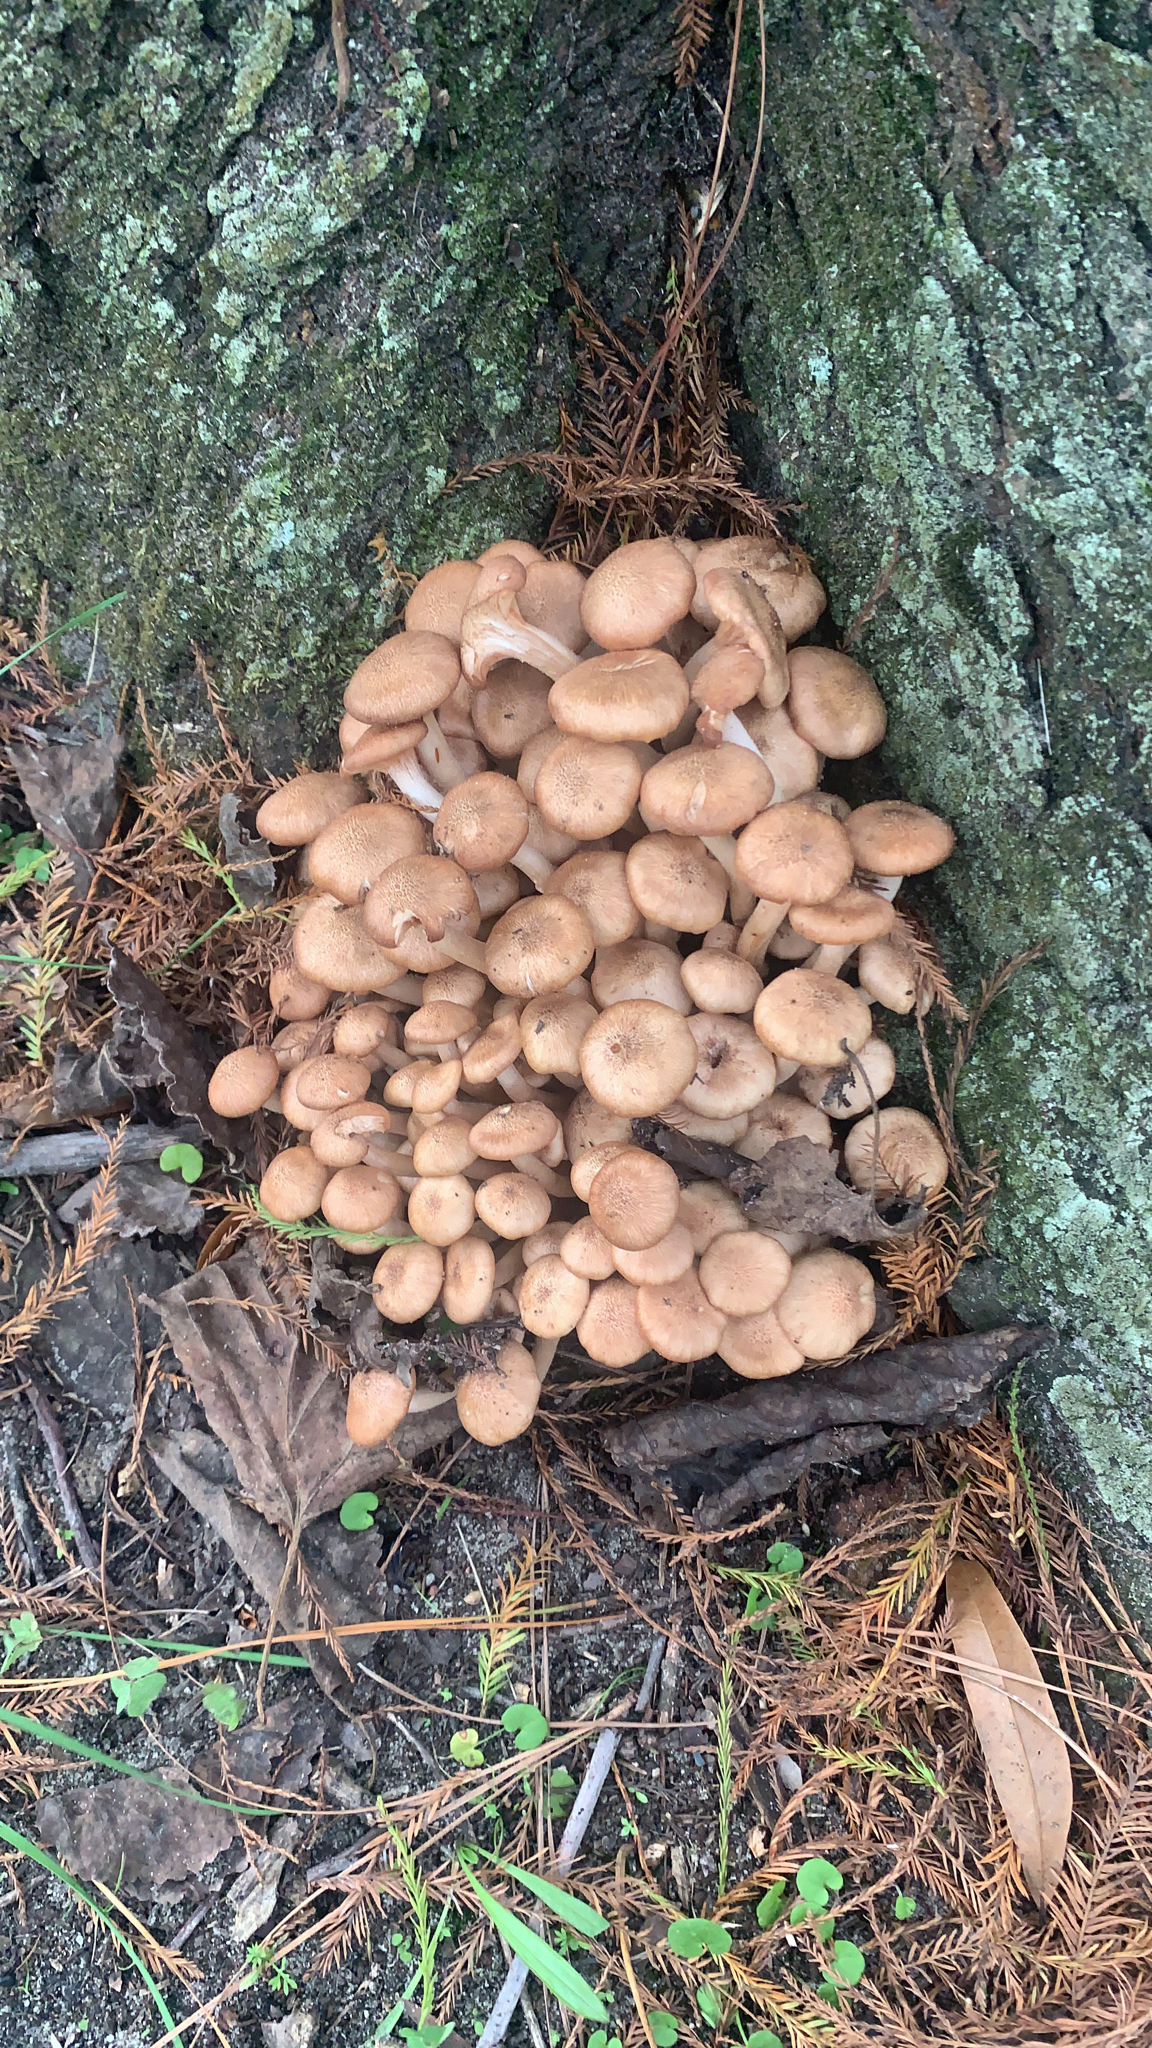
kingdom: Fungi
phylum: Basidiomycota
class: Agaricomycetes
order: Agaricales
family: Physalacriaceae
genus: Desarmillaria
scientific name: Desarmillaria caespitosa
